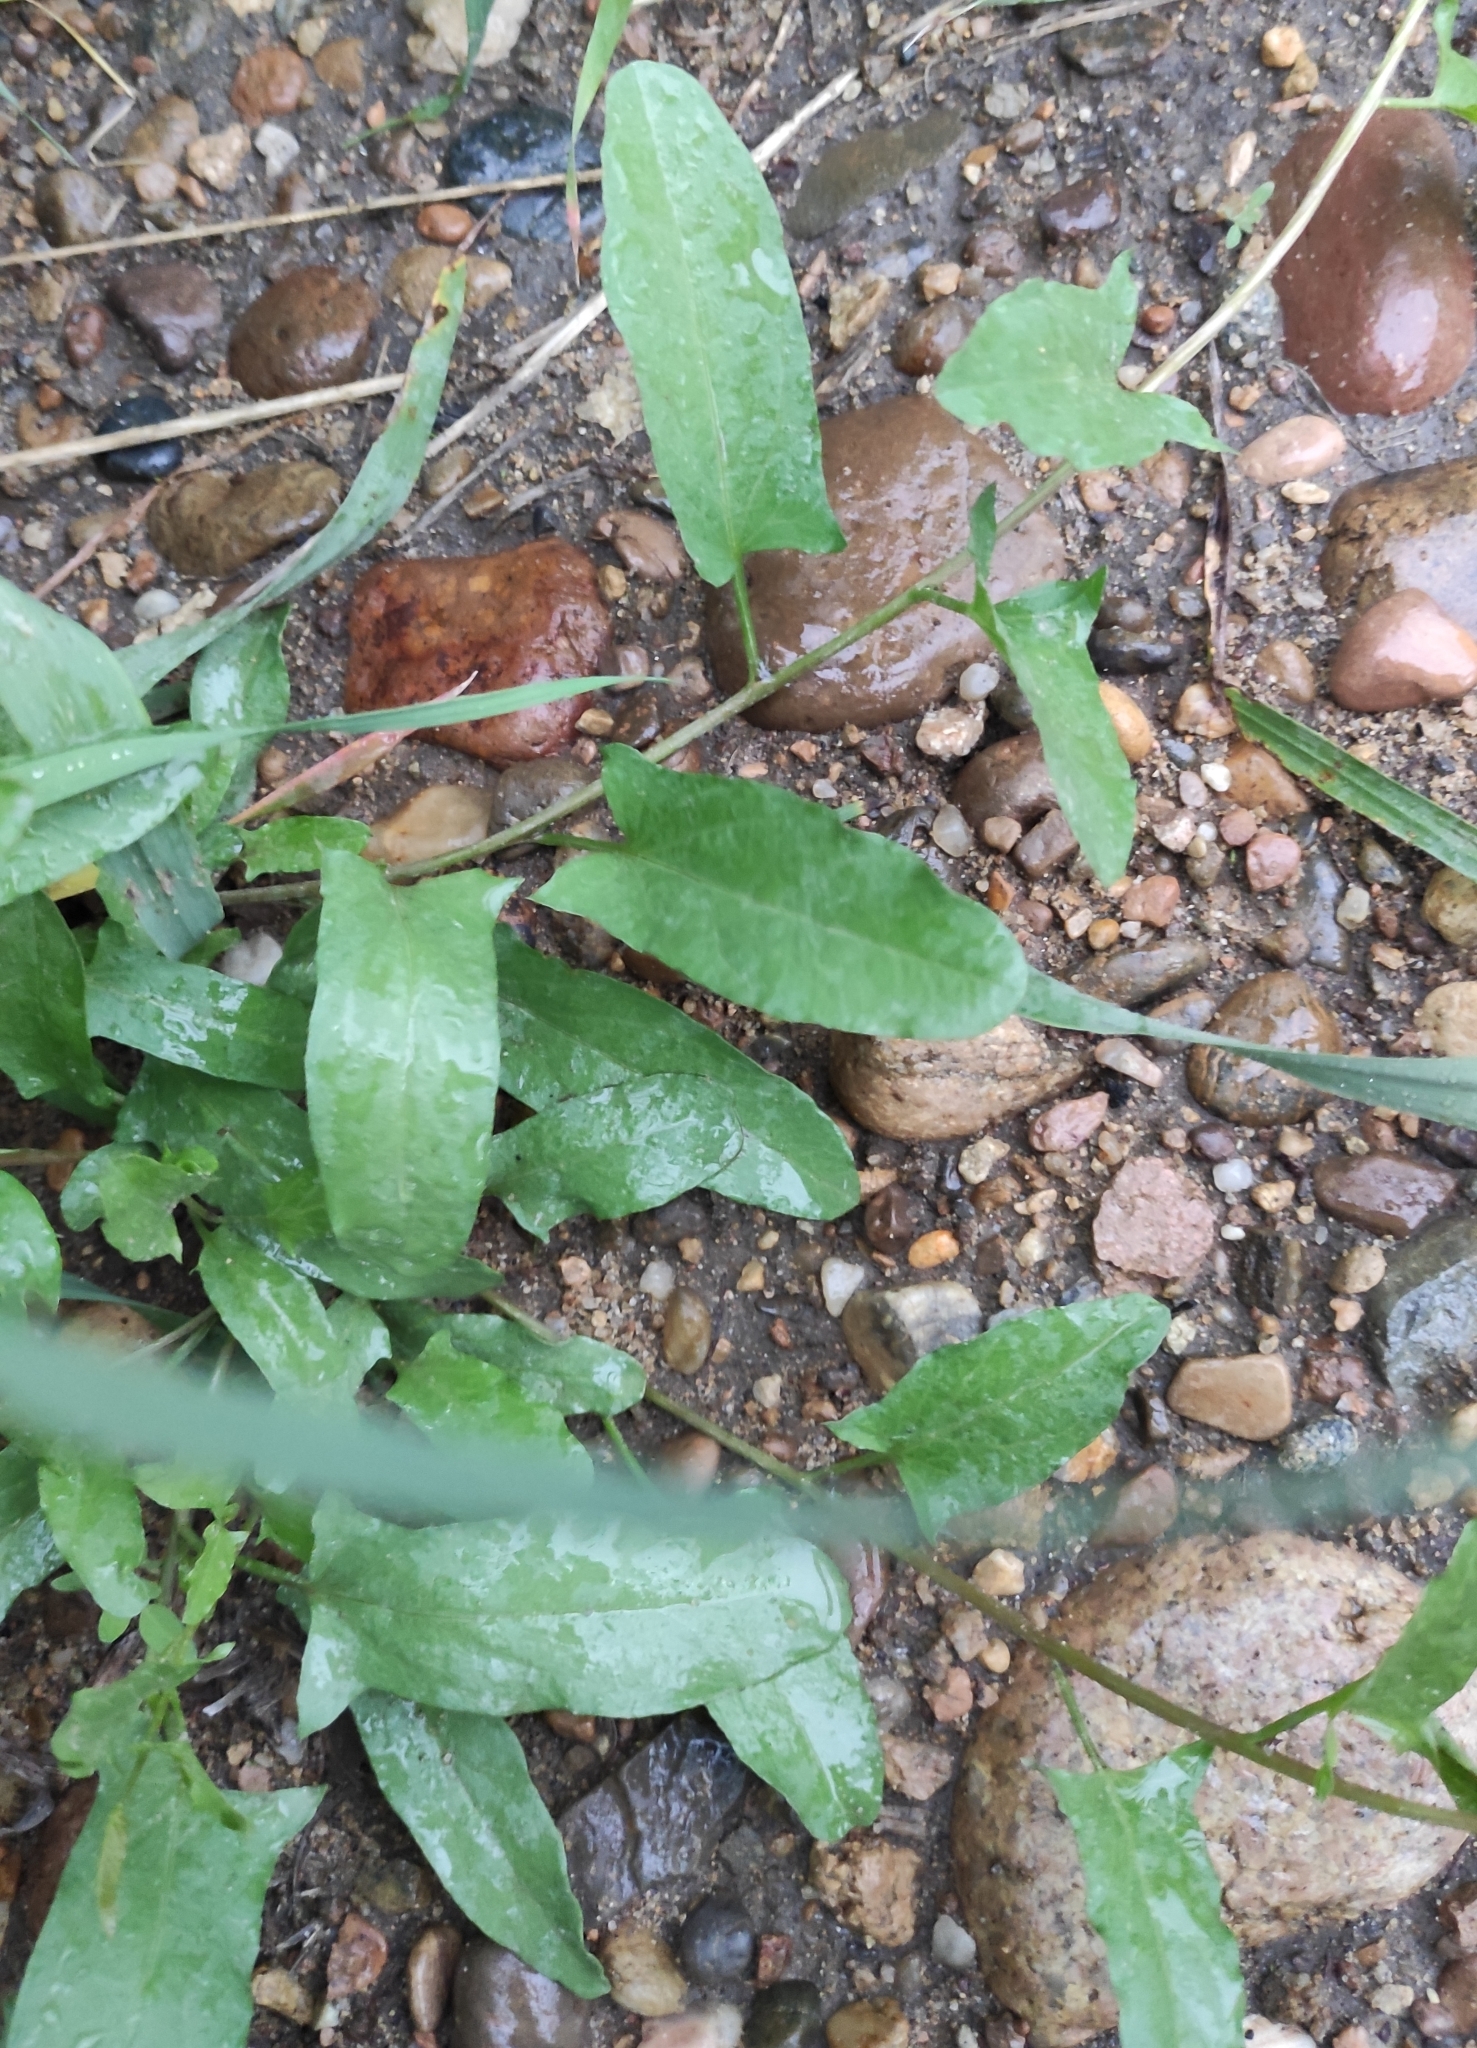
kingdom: Plantae
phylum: Tracheophyta
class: Magnoliopsida
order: Solanales
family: Convolvulaceae
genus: Convolvulus
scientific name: Convolvulus arvensis
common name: Field bindweed
